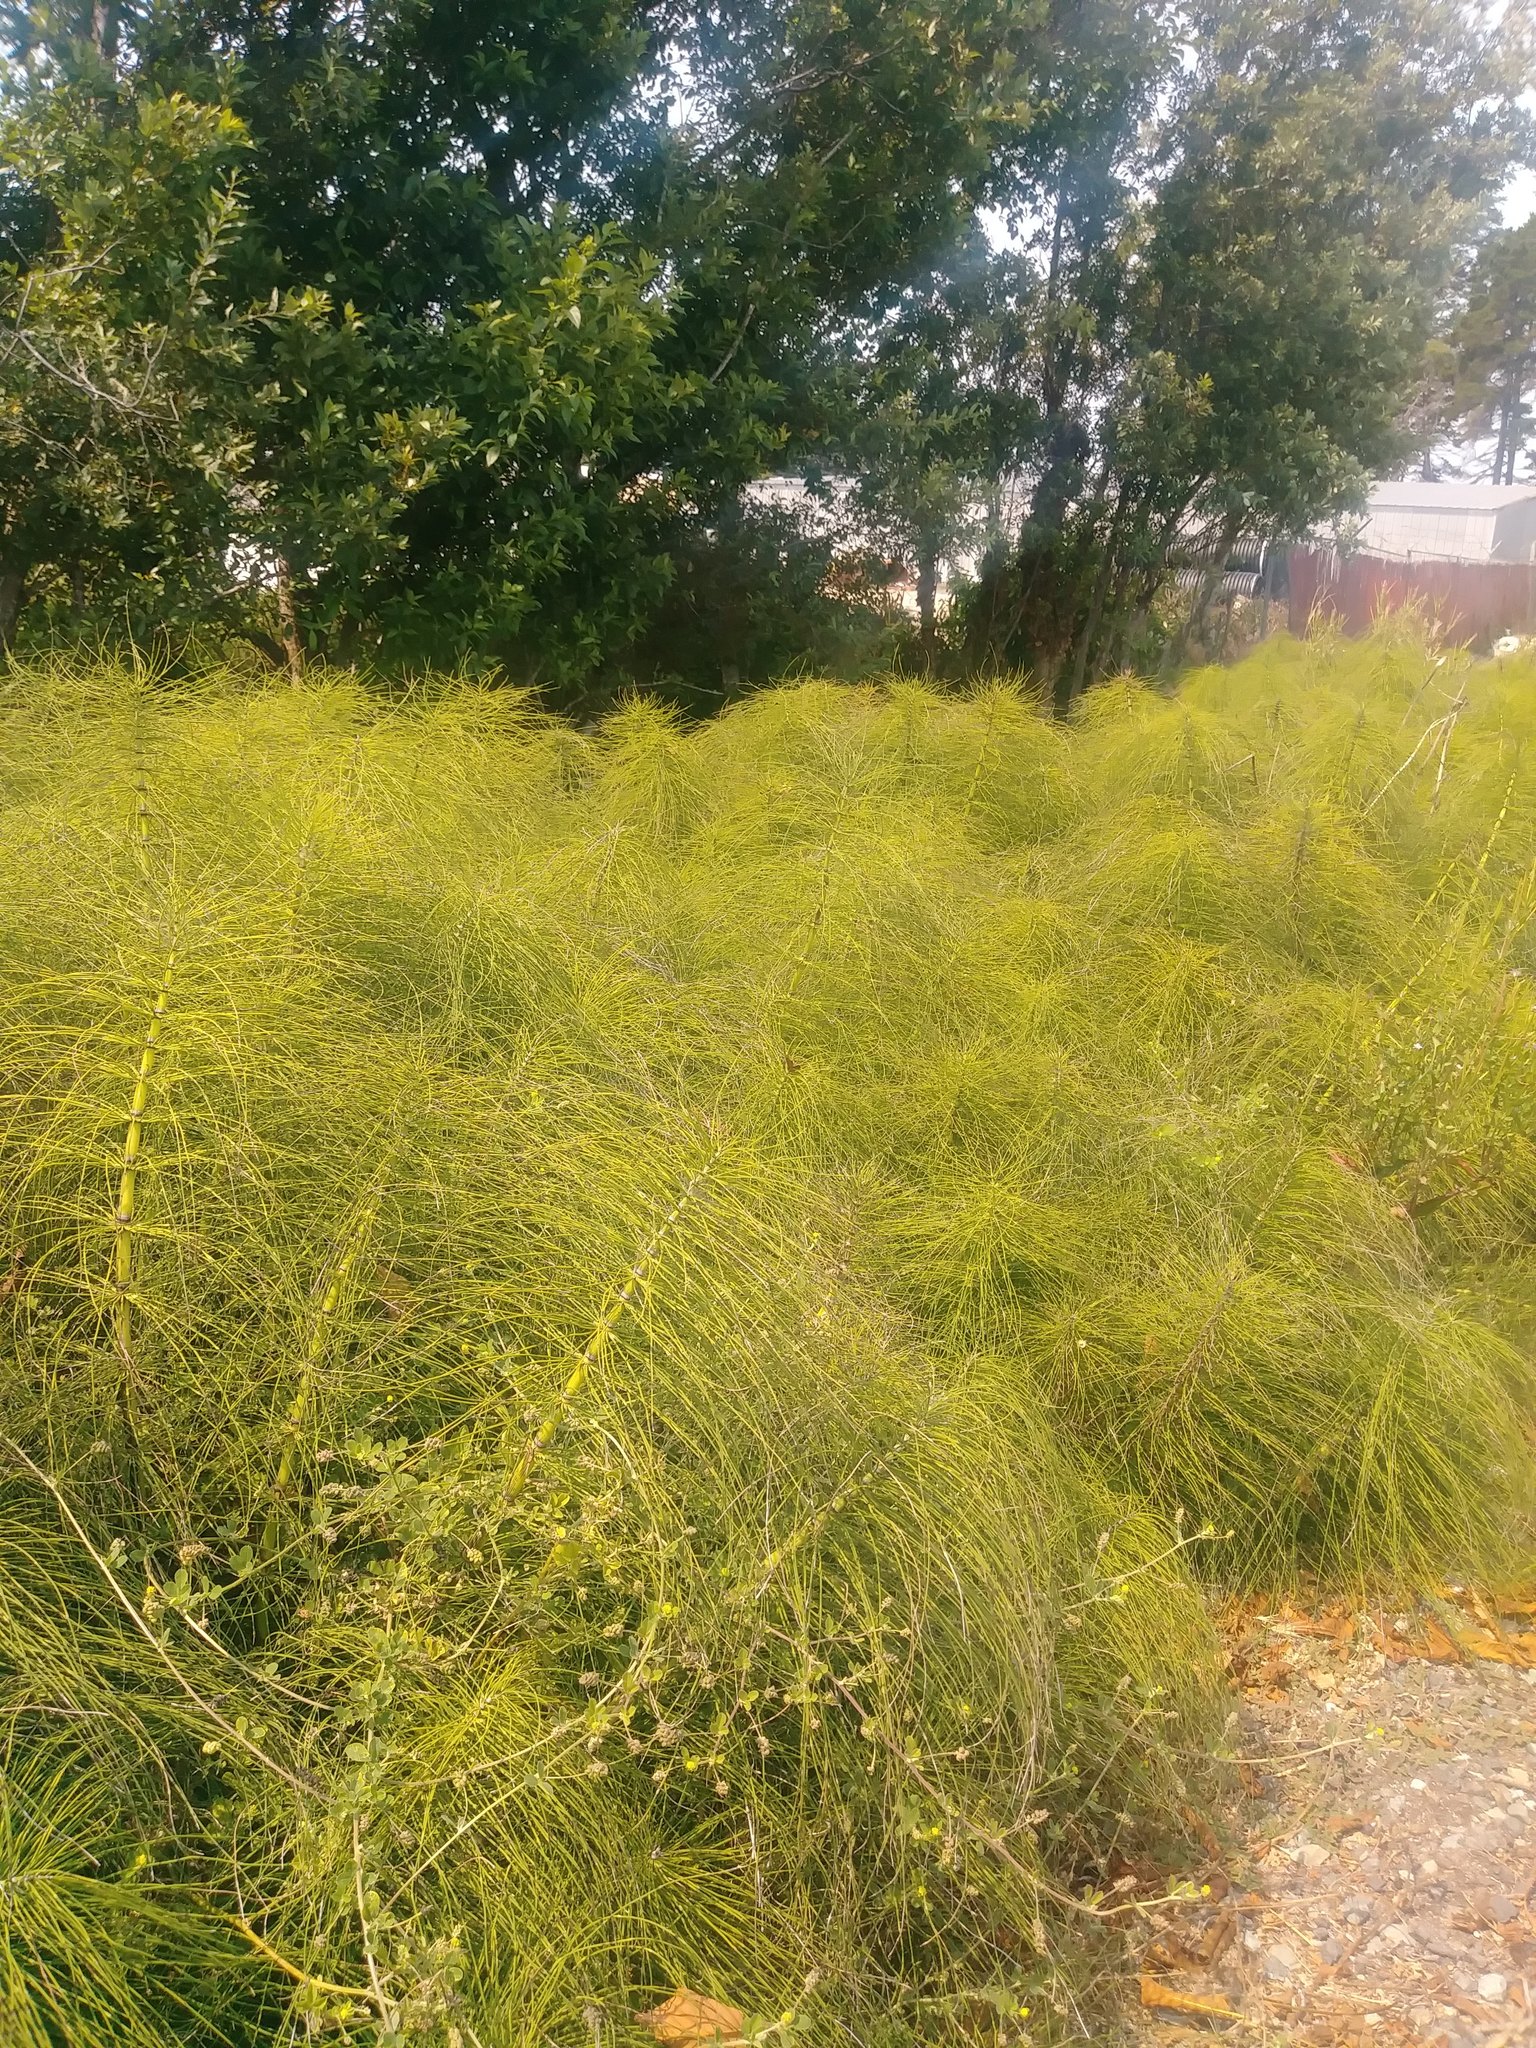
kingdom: Plantae
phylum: Tracheophyta
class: Polypodiopsida
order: Equisetales
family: Equisetaceae
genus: Equisetum
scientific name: Equisetum telmateia
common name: Great horsetail
